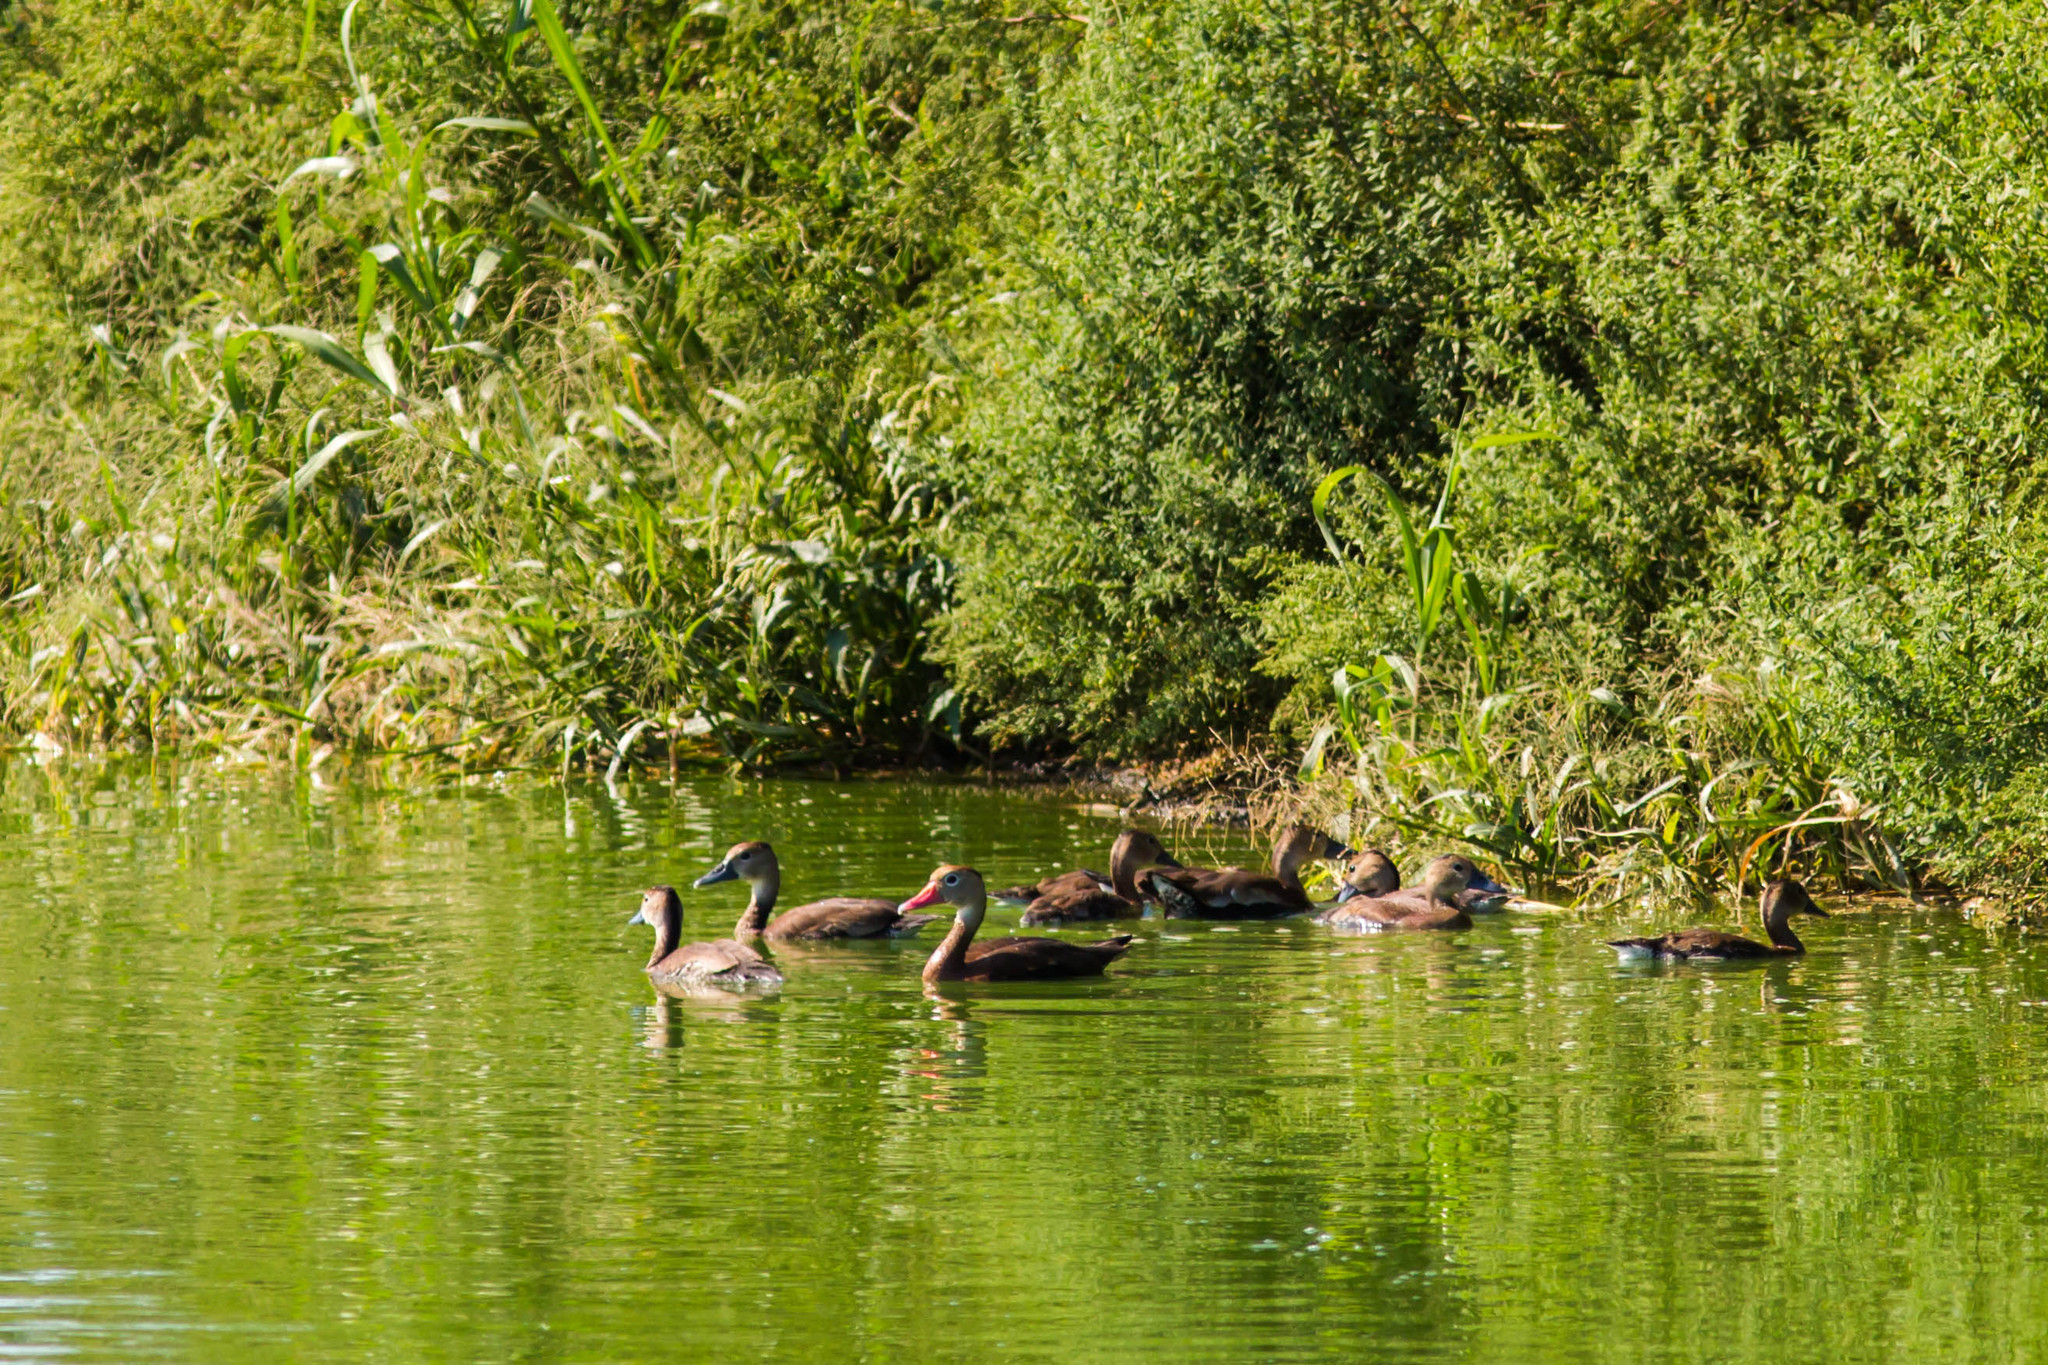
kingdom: Animalia
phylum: Chordata
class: Aves
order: Anseriformes
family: Anatidae
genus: Dendrocygna
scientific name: Dendrocygna autumnalis
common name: Black-bellied whistling duck
